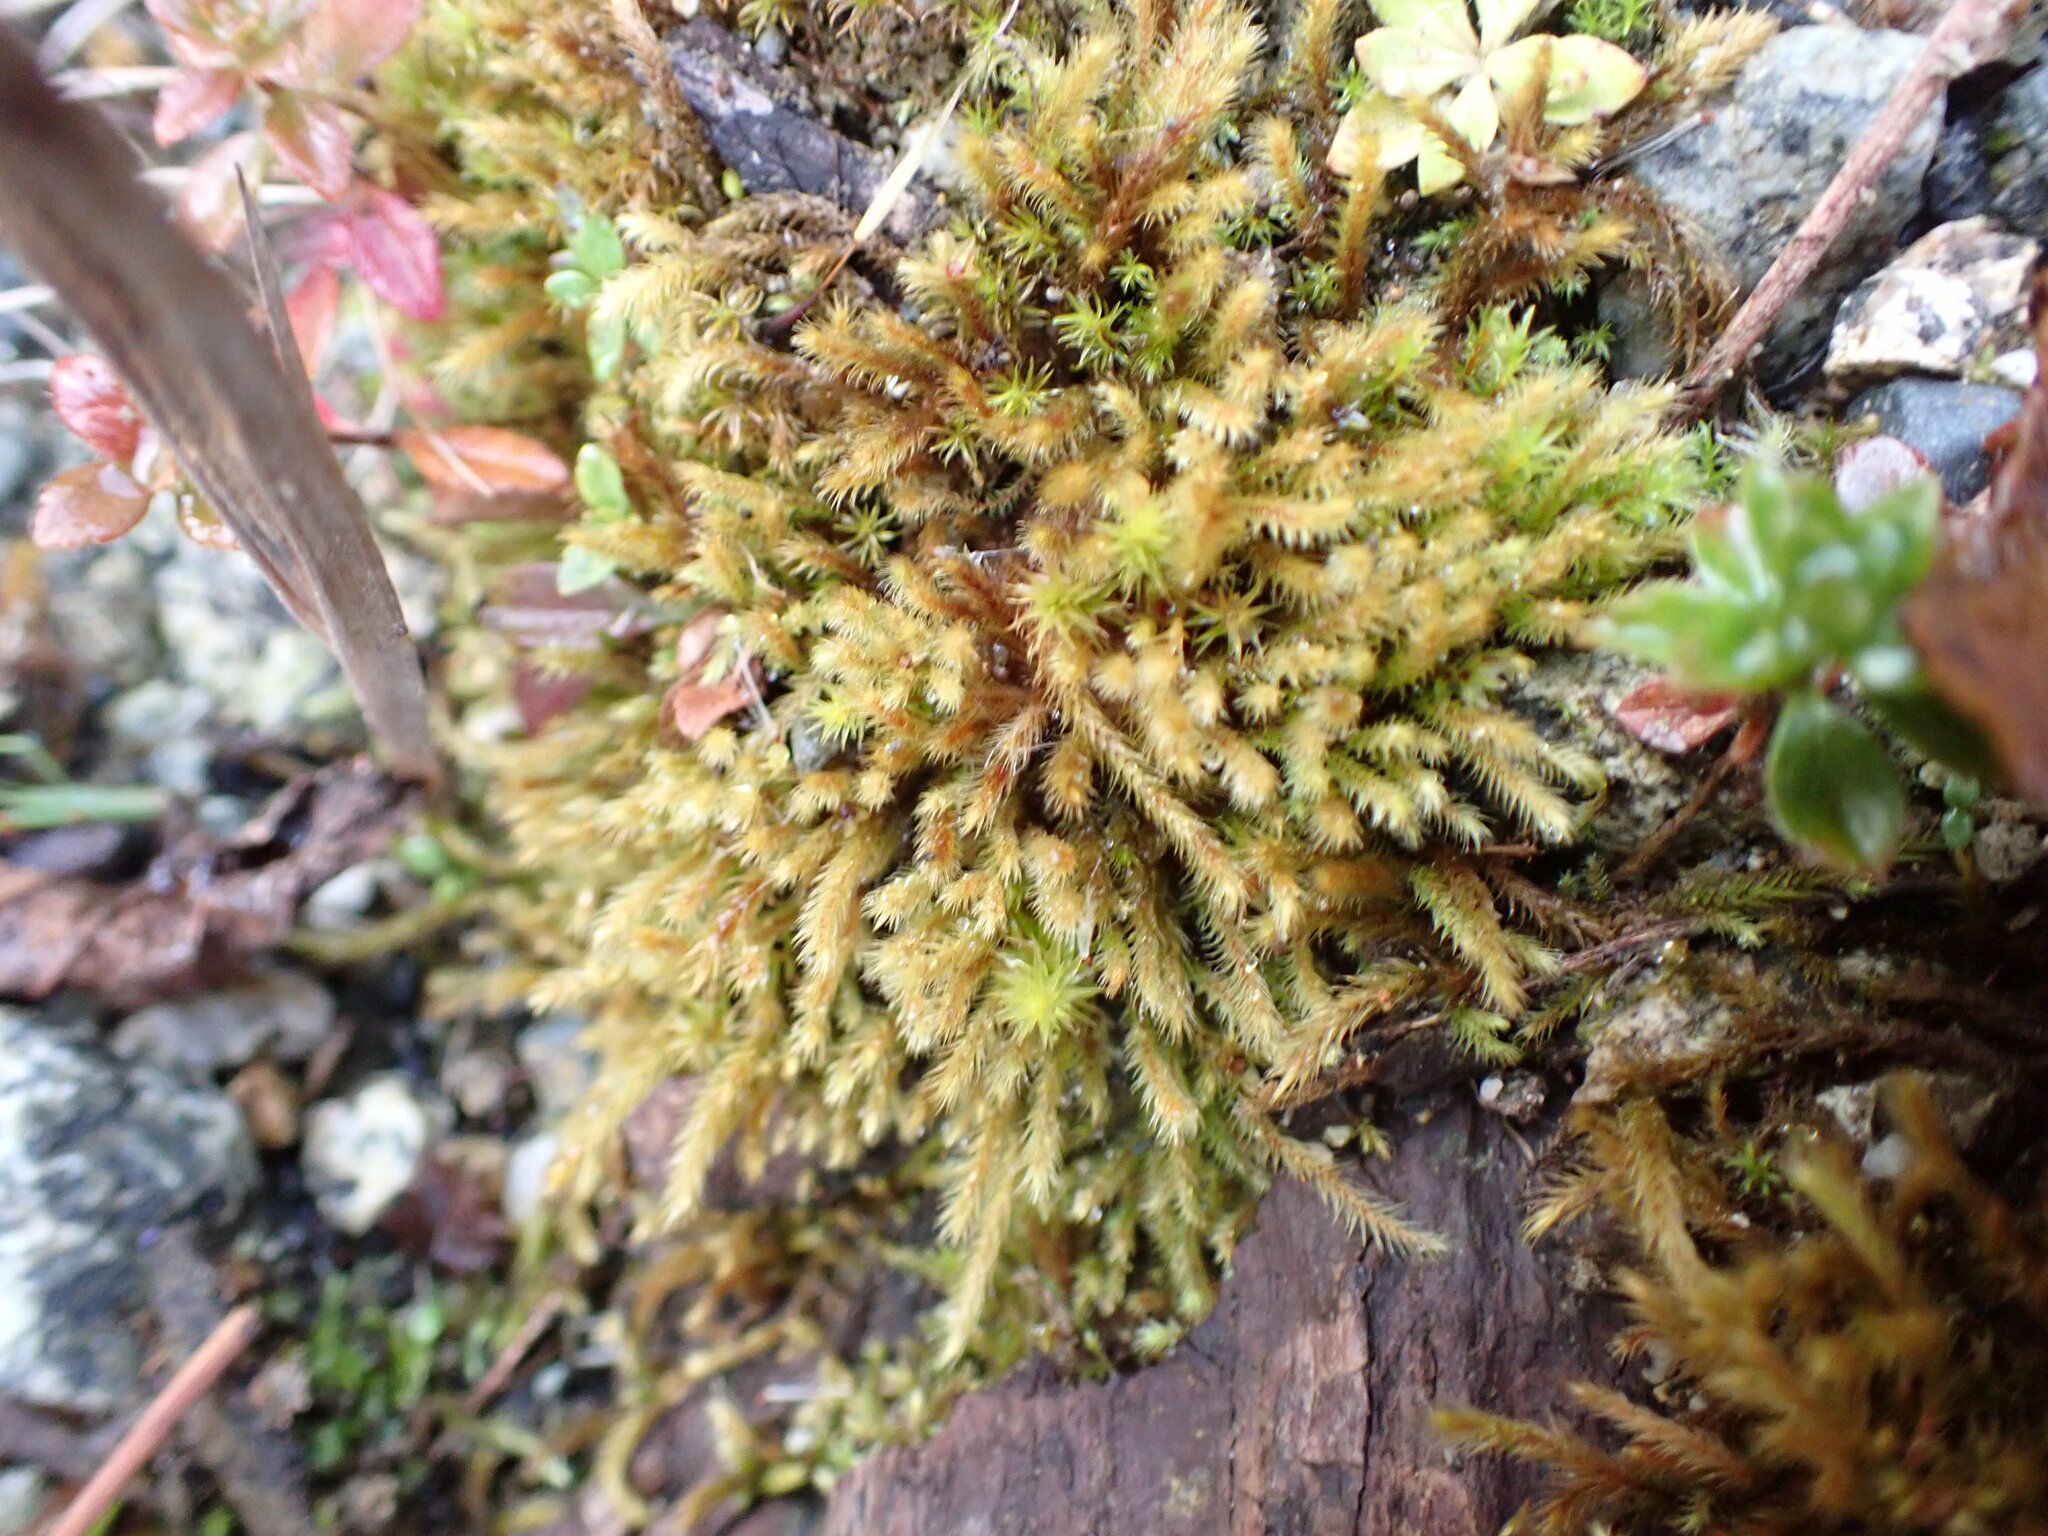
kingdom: Plantae
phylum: Bryophyta
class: Bryopsida
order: Bartramiales
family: Bartramiaceae
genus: Philonotis
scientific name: Philonotis fontana
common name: Fountain apple-moss
